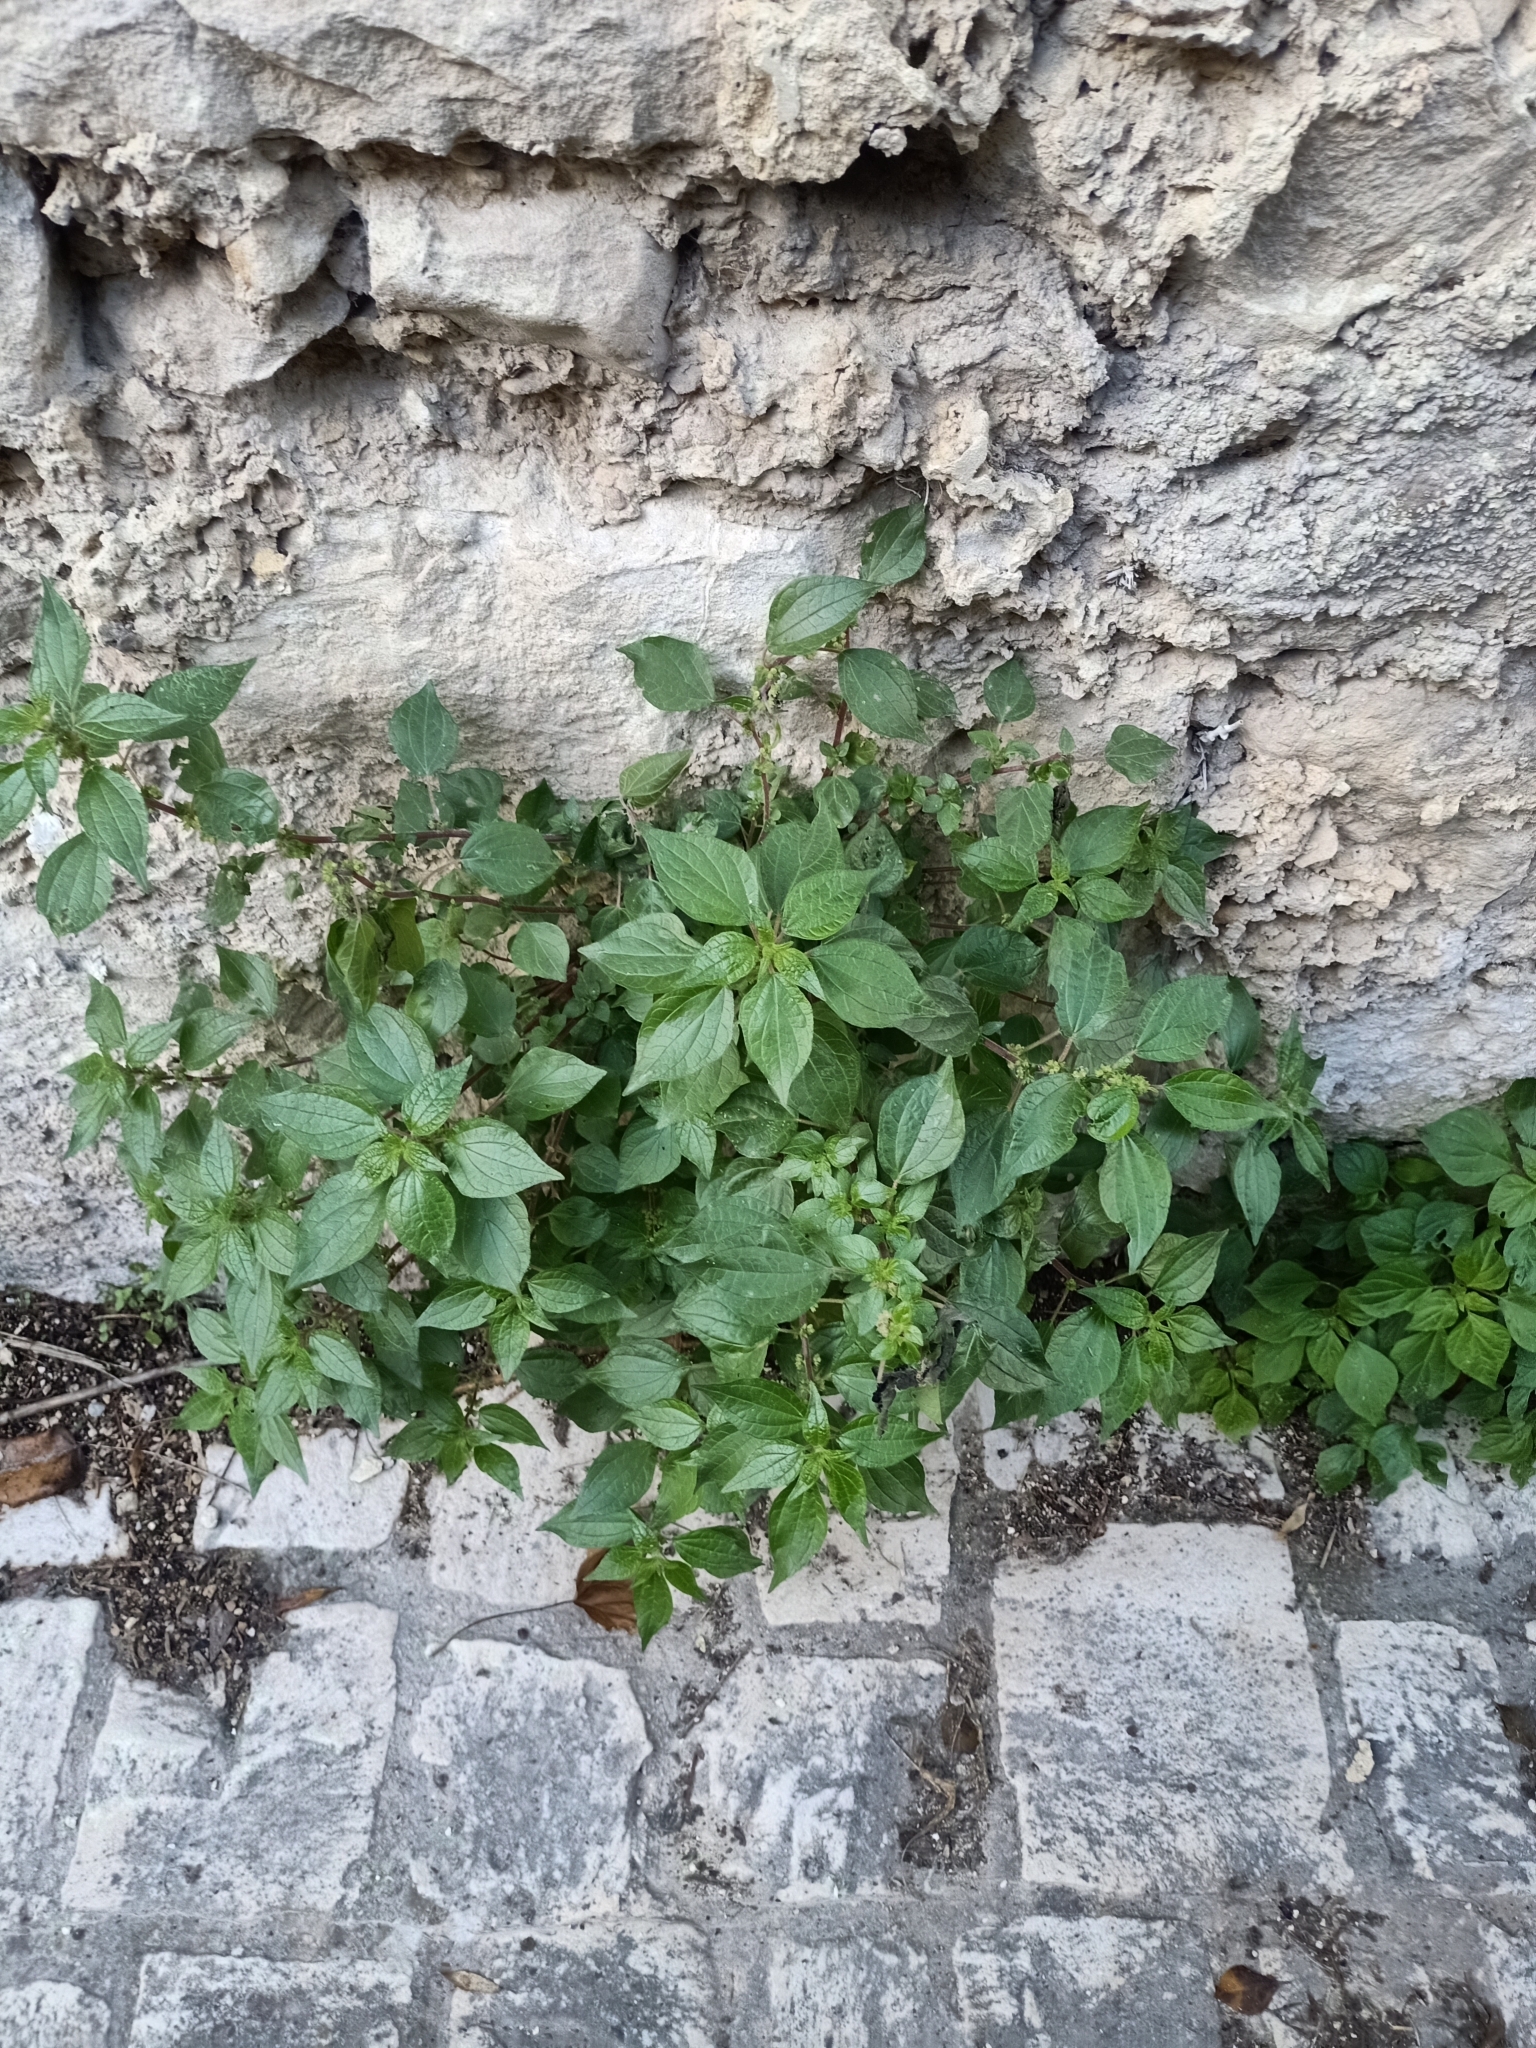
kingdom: Plantae
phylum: Tracheophyta
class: Magnoliopsida
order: Rosales
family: Urticaceae
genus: Parietaria
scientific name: Parietaria judaica
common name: Pellitory-of-the-wall
